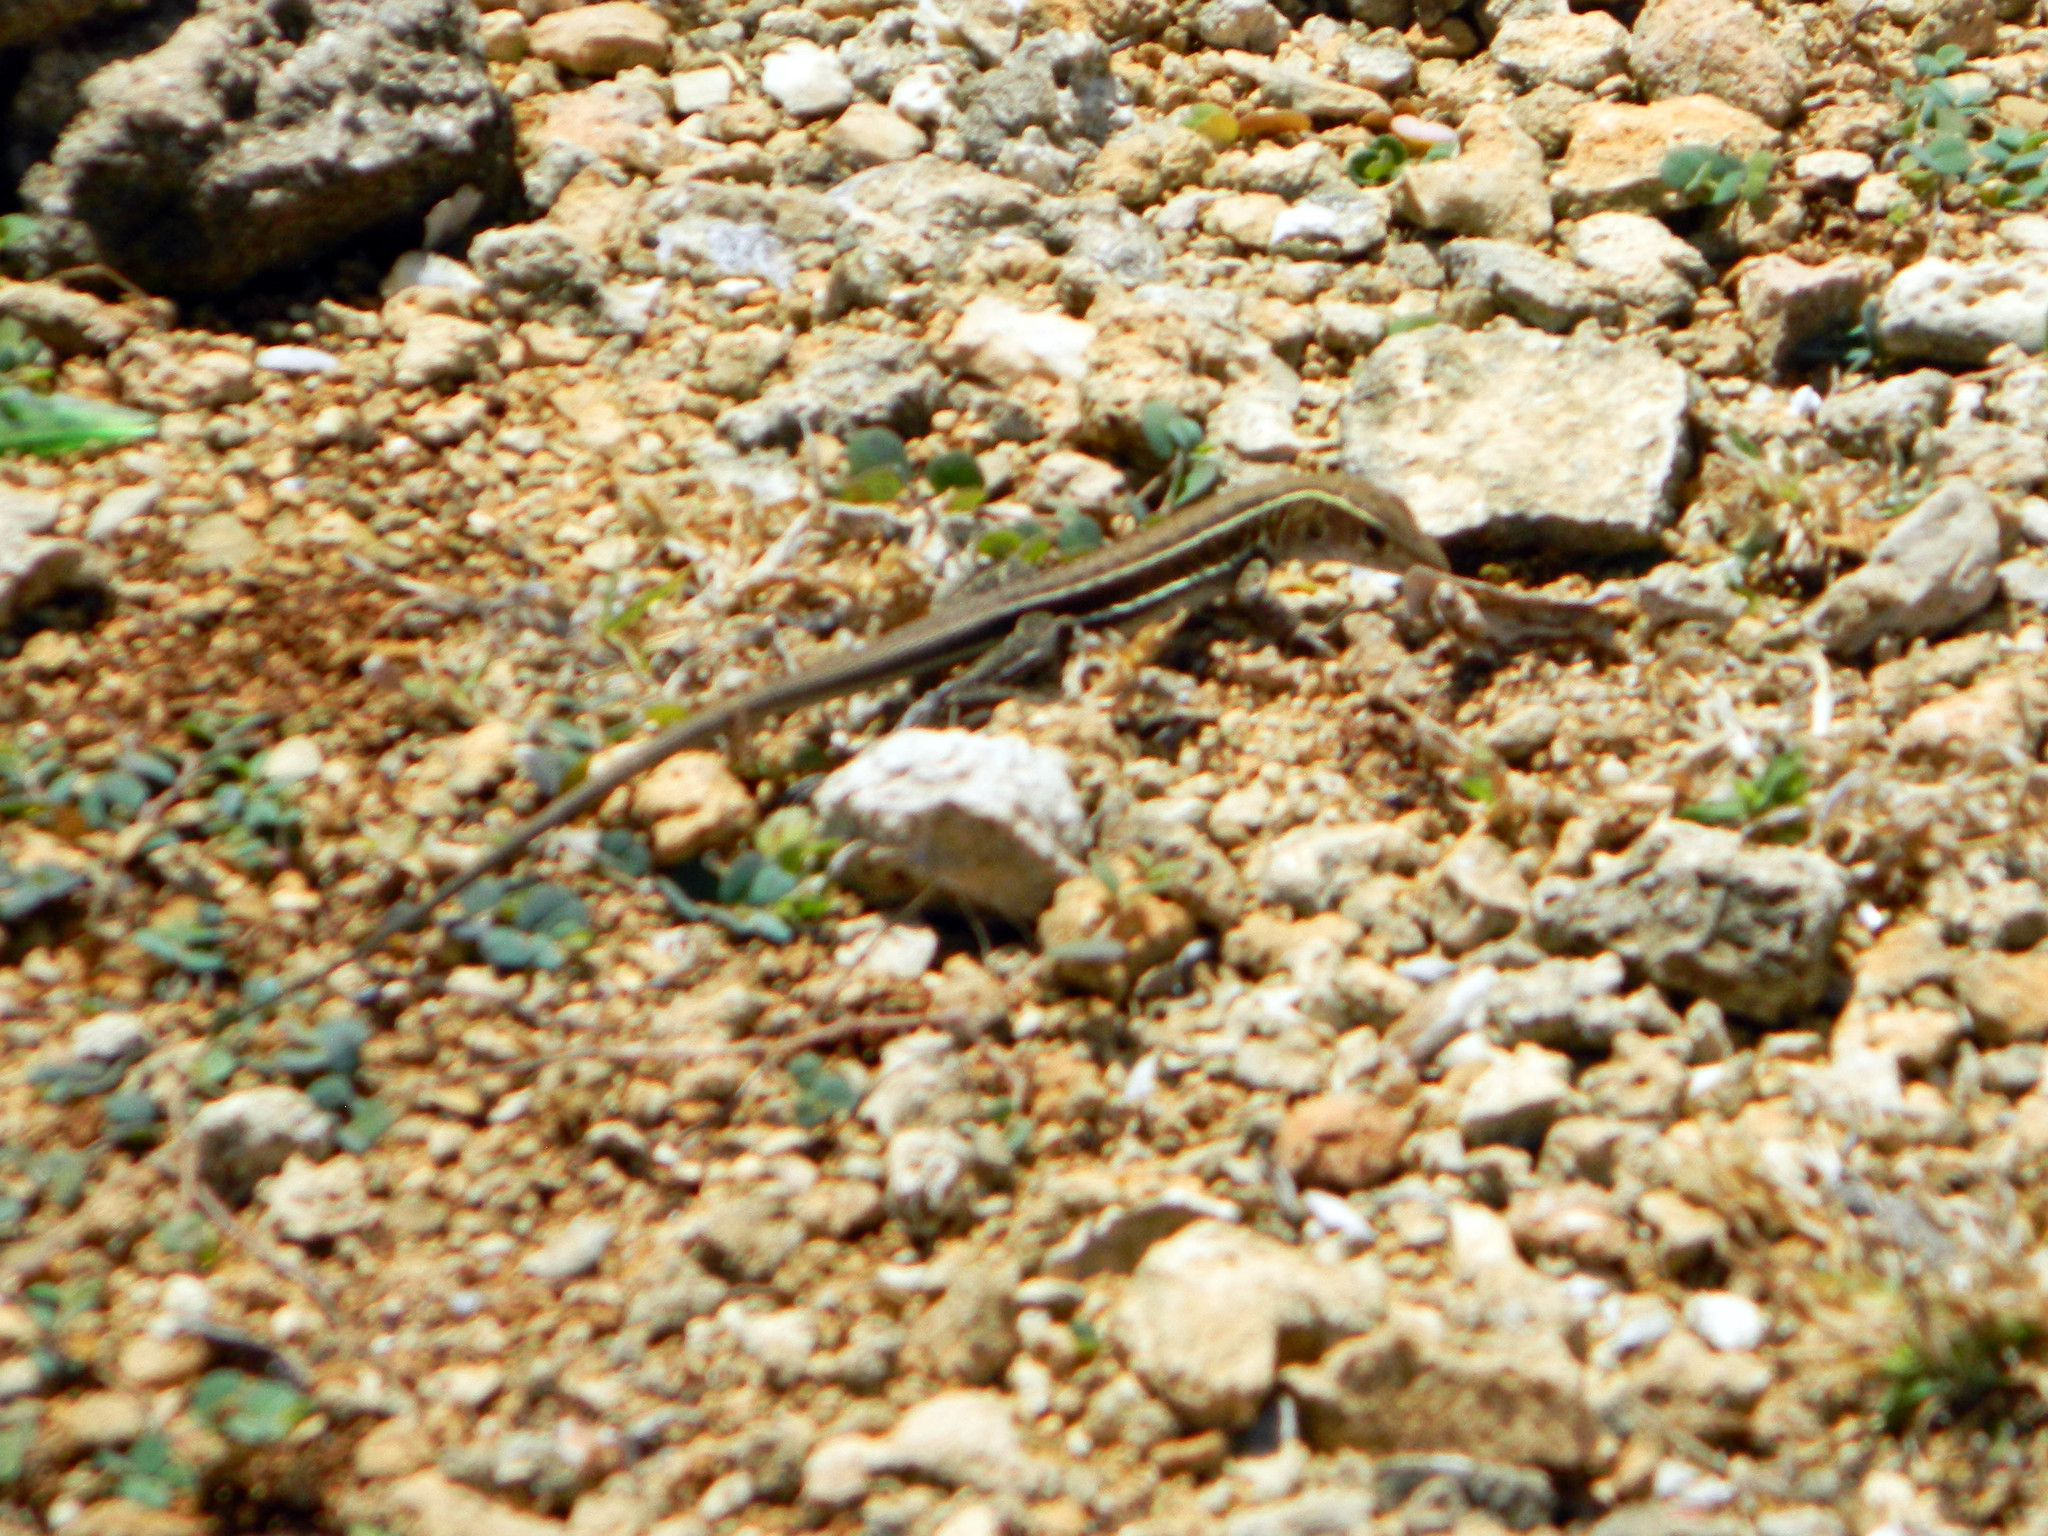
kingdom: Animalia
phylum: Chordata
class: Squamata
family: Teiidae
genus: Pholidoscelis
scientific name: Pholidoscelis griswoldi
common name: Antiguan ameiva
